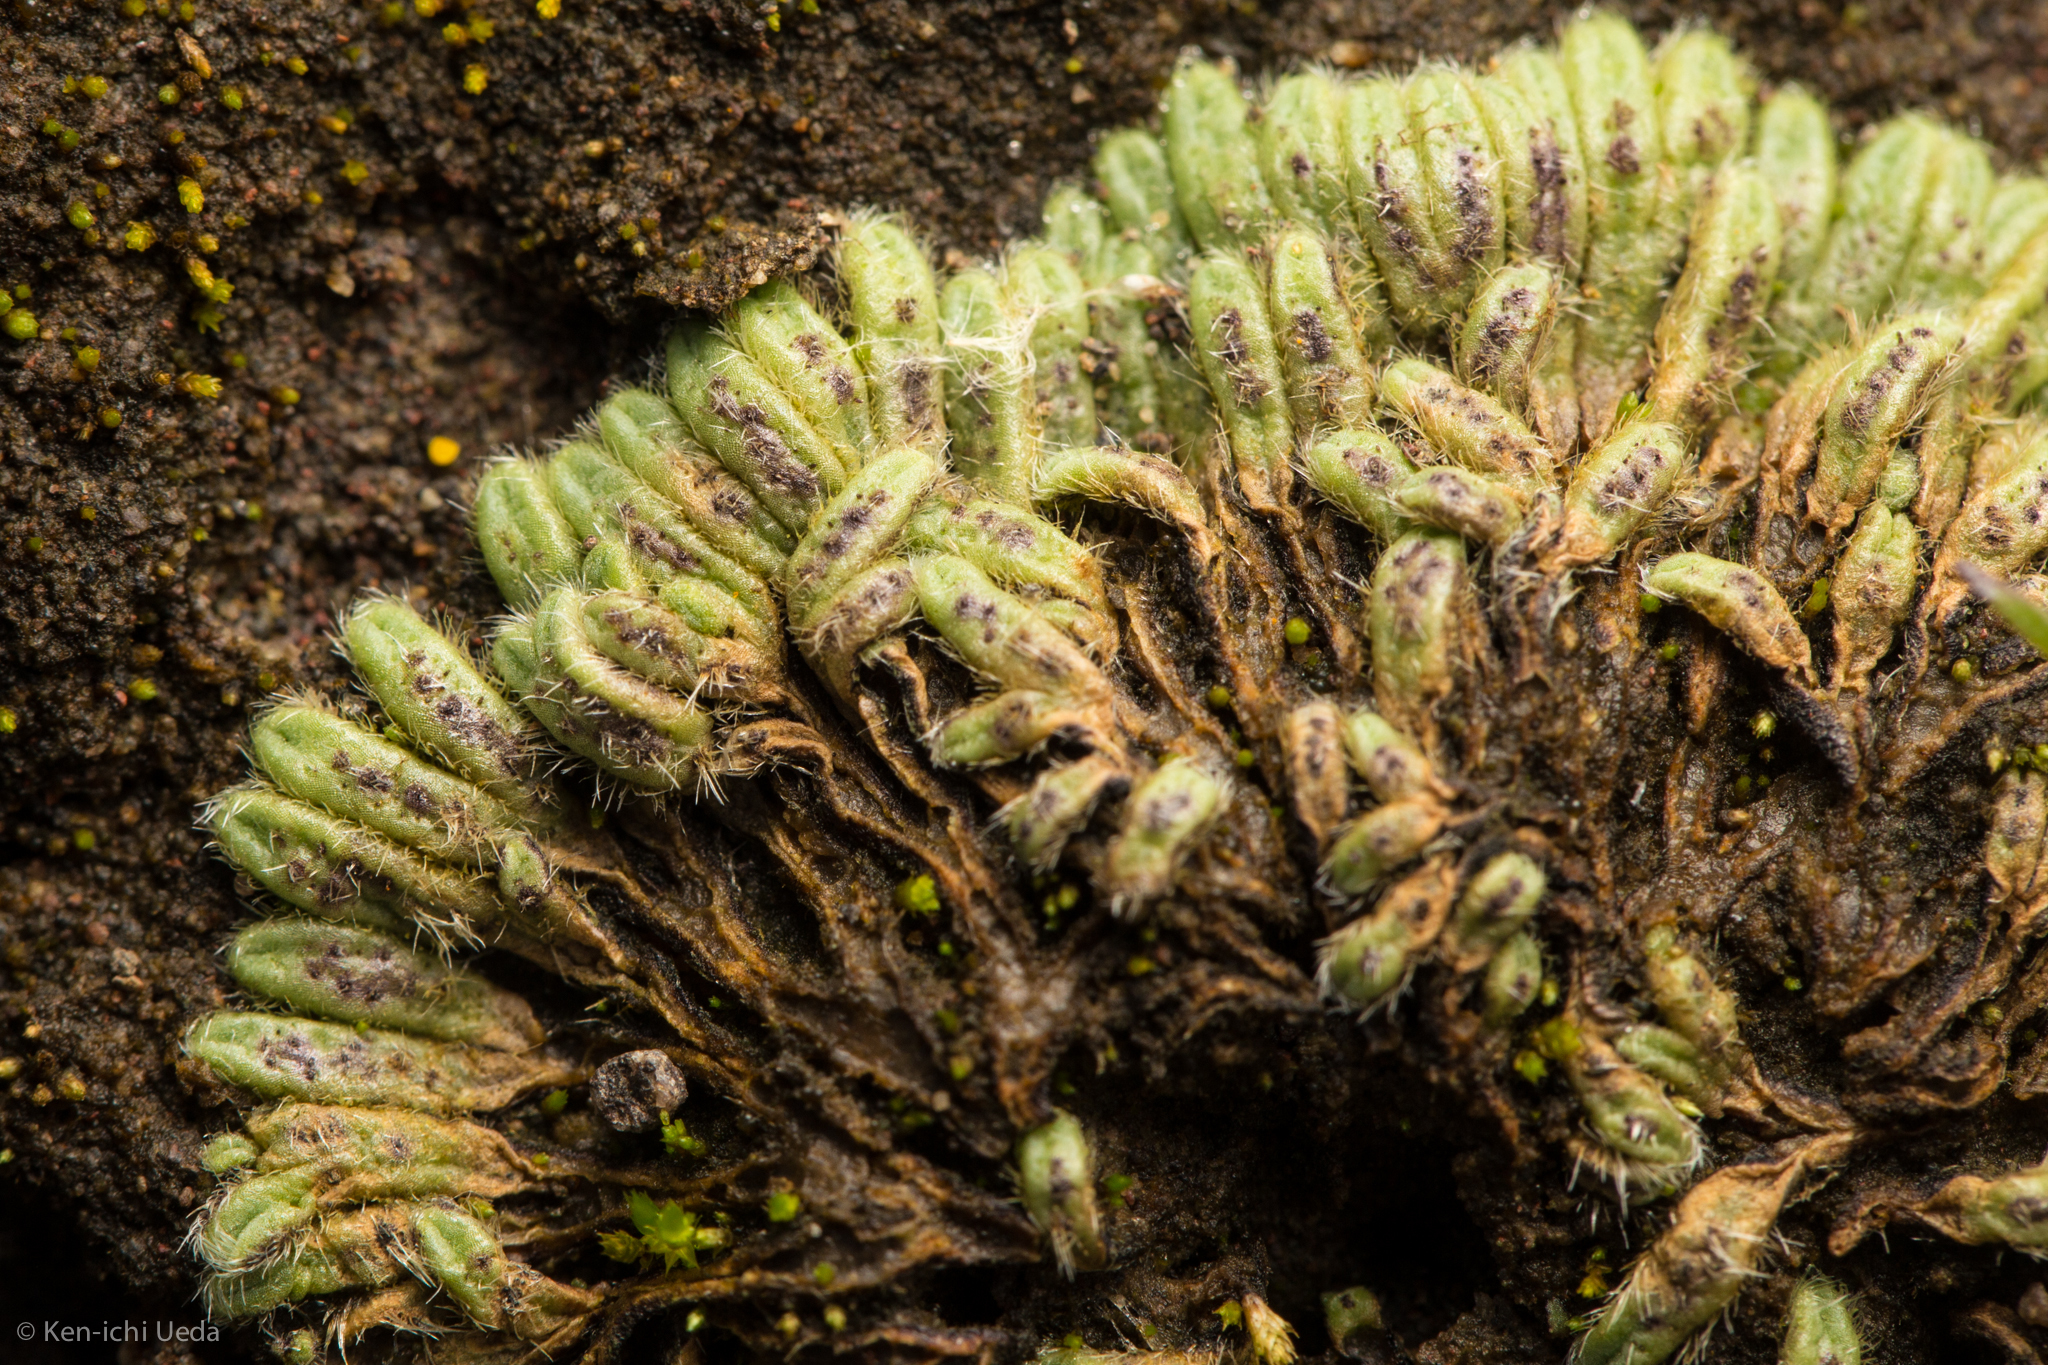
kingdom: Plantae
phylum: Marchantiophyta
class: Marchantiopsida
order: Marchantiales
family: Ricciaceae
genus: Riccia
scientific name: Riccia trichocarpa
